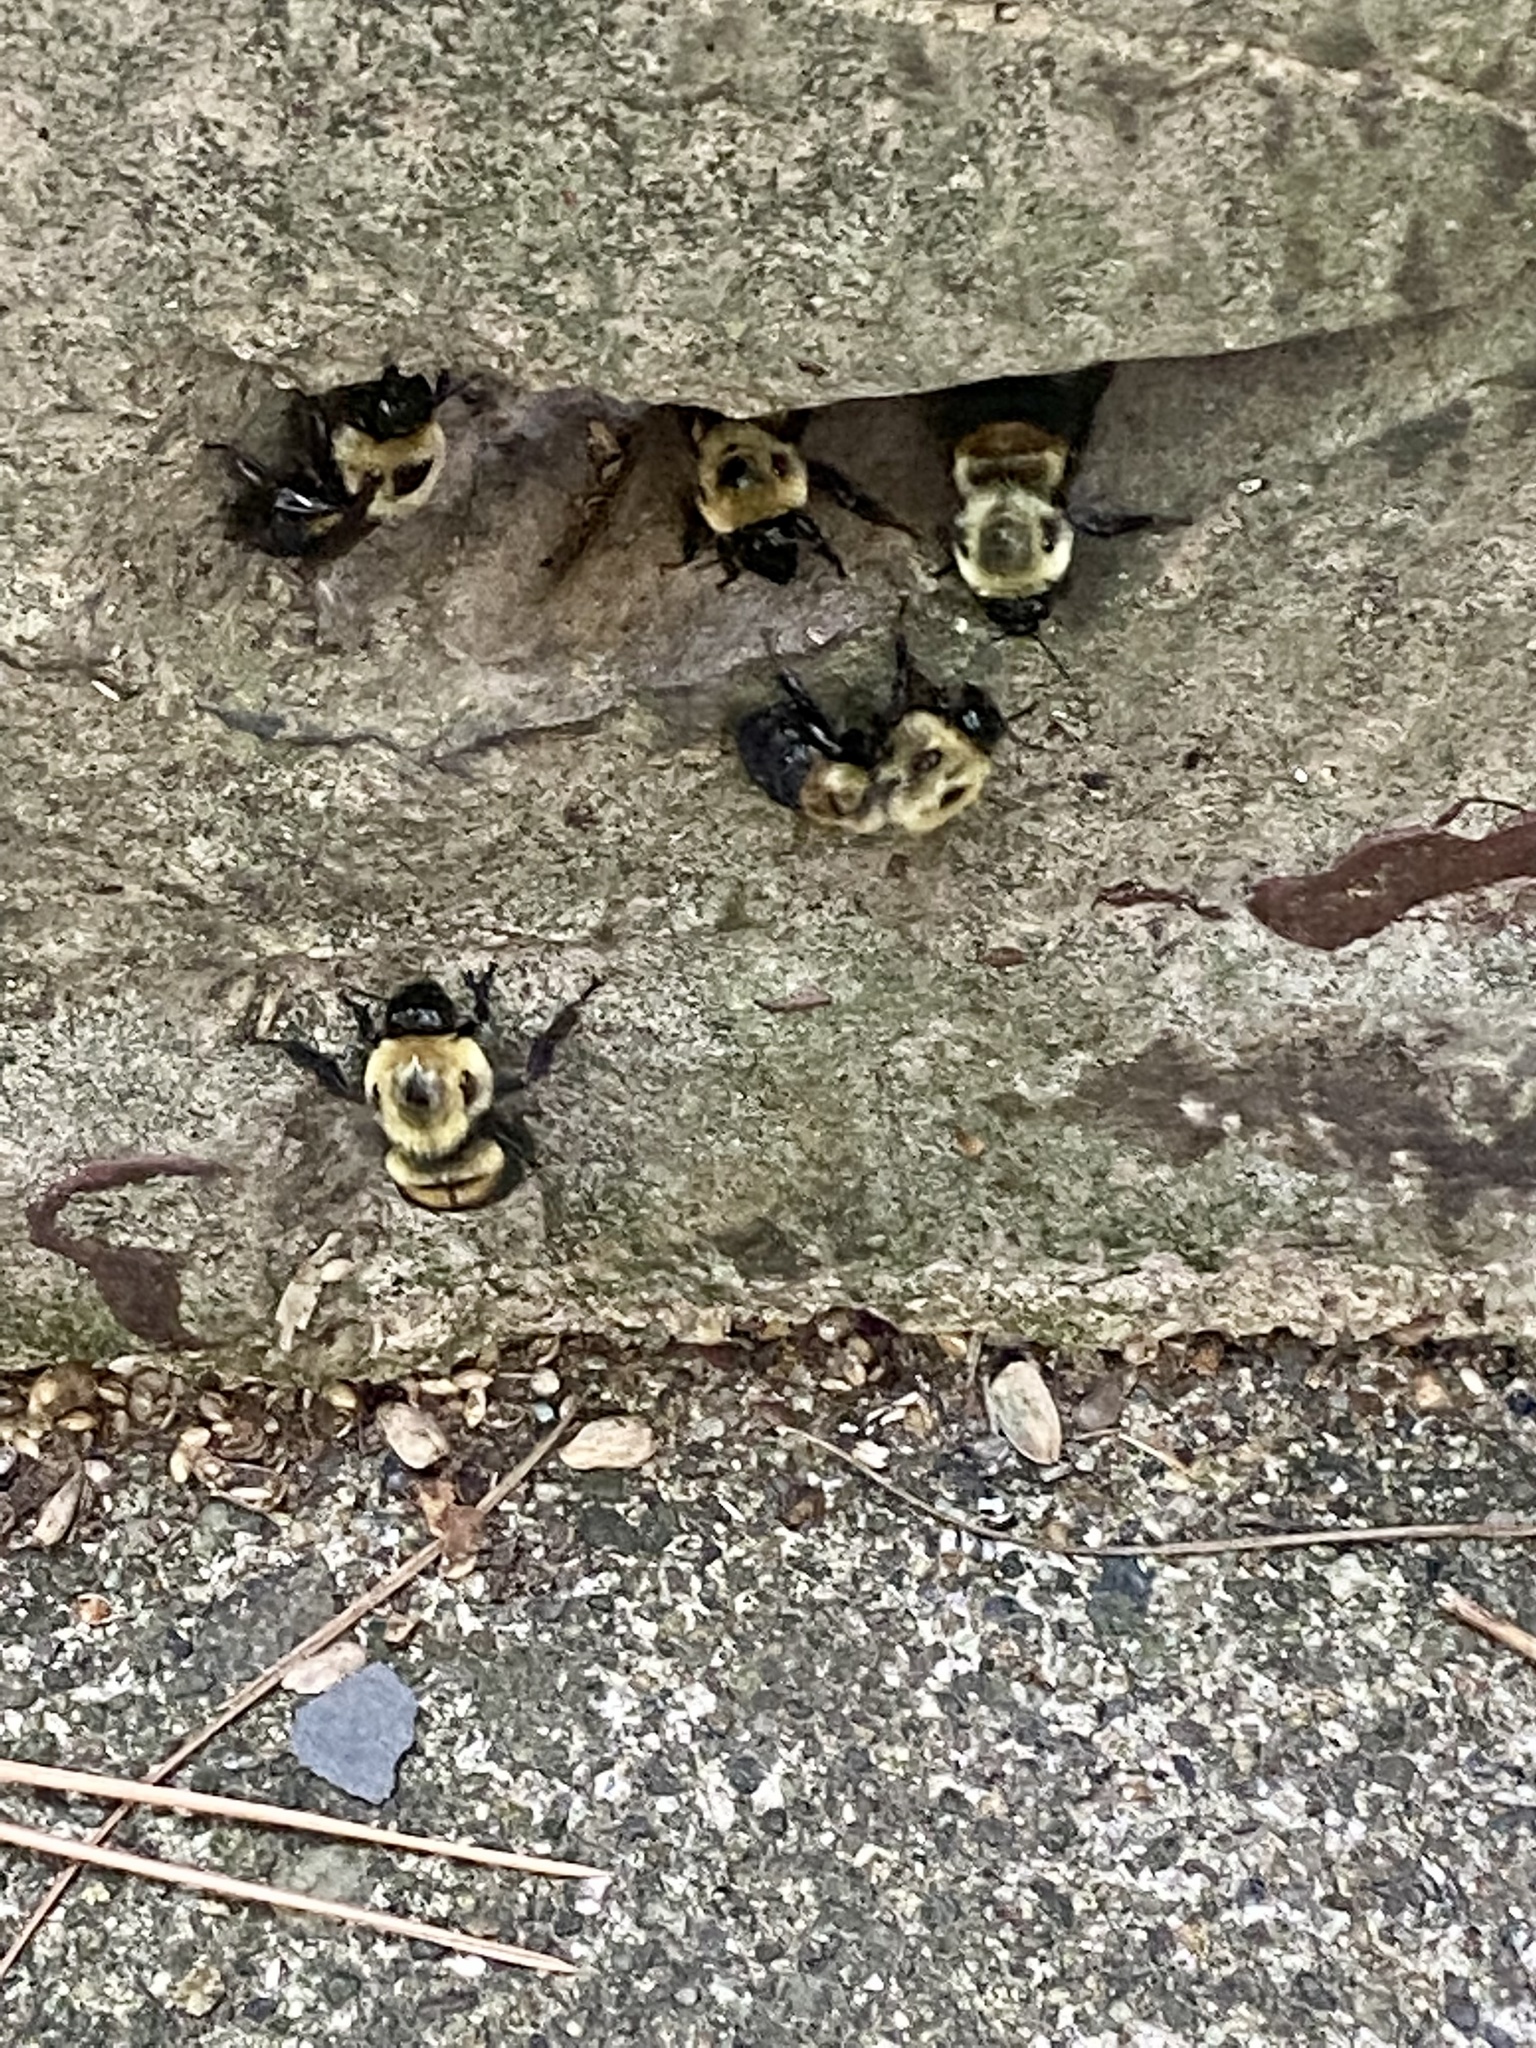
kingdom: Animalia
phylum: Arthropoda
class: Insecta
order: Hymenoptera
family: Apidae
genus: Bombus
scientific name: Bombus griseocollis
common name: Brown-belted bumble bee
